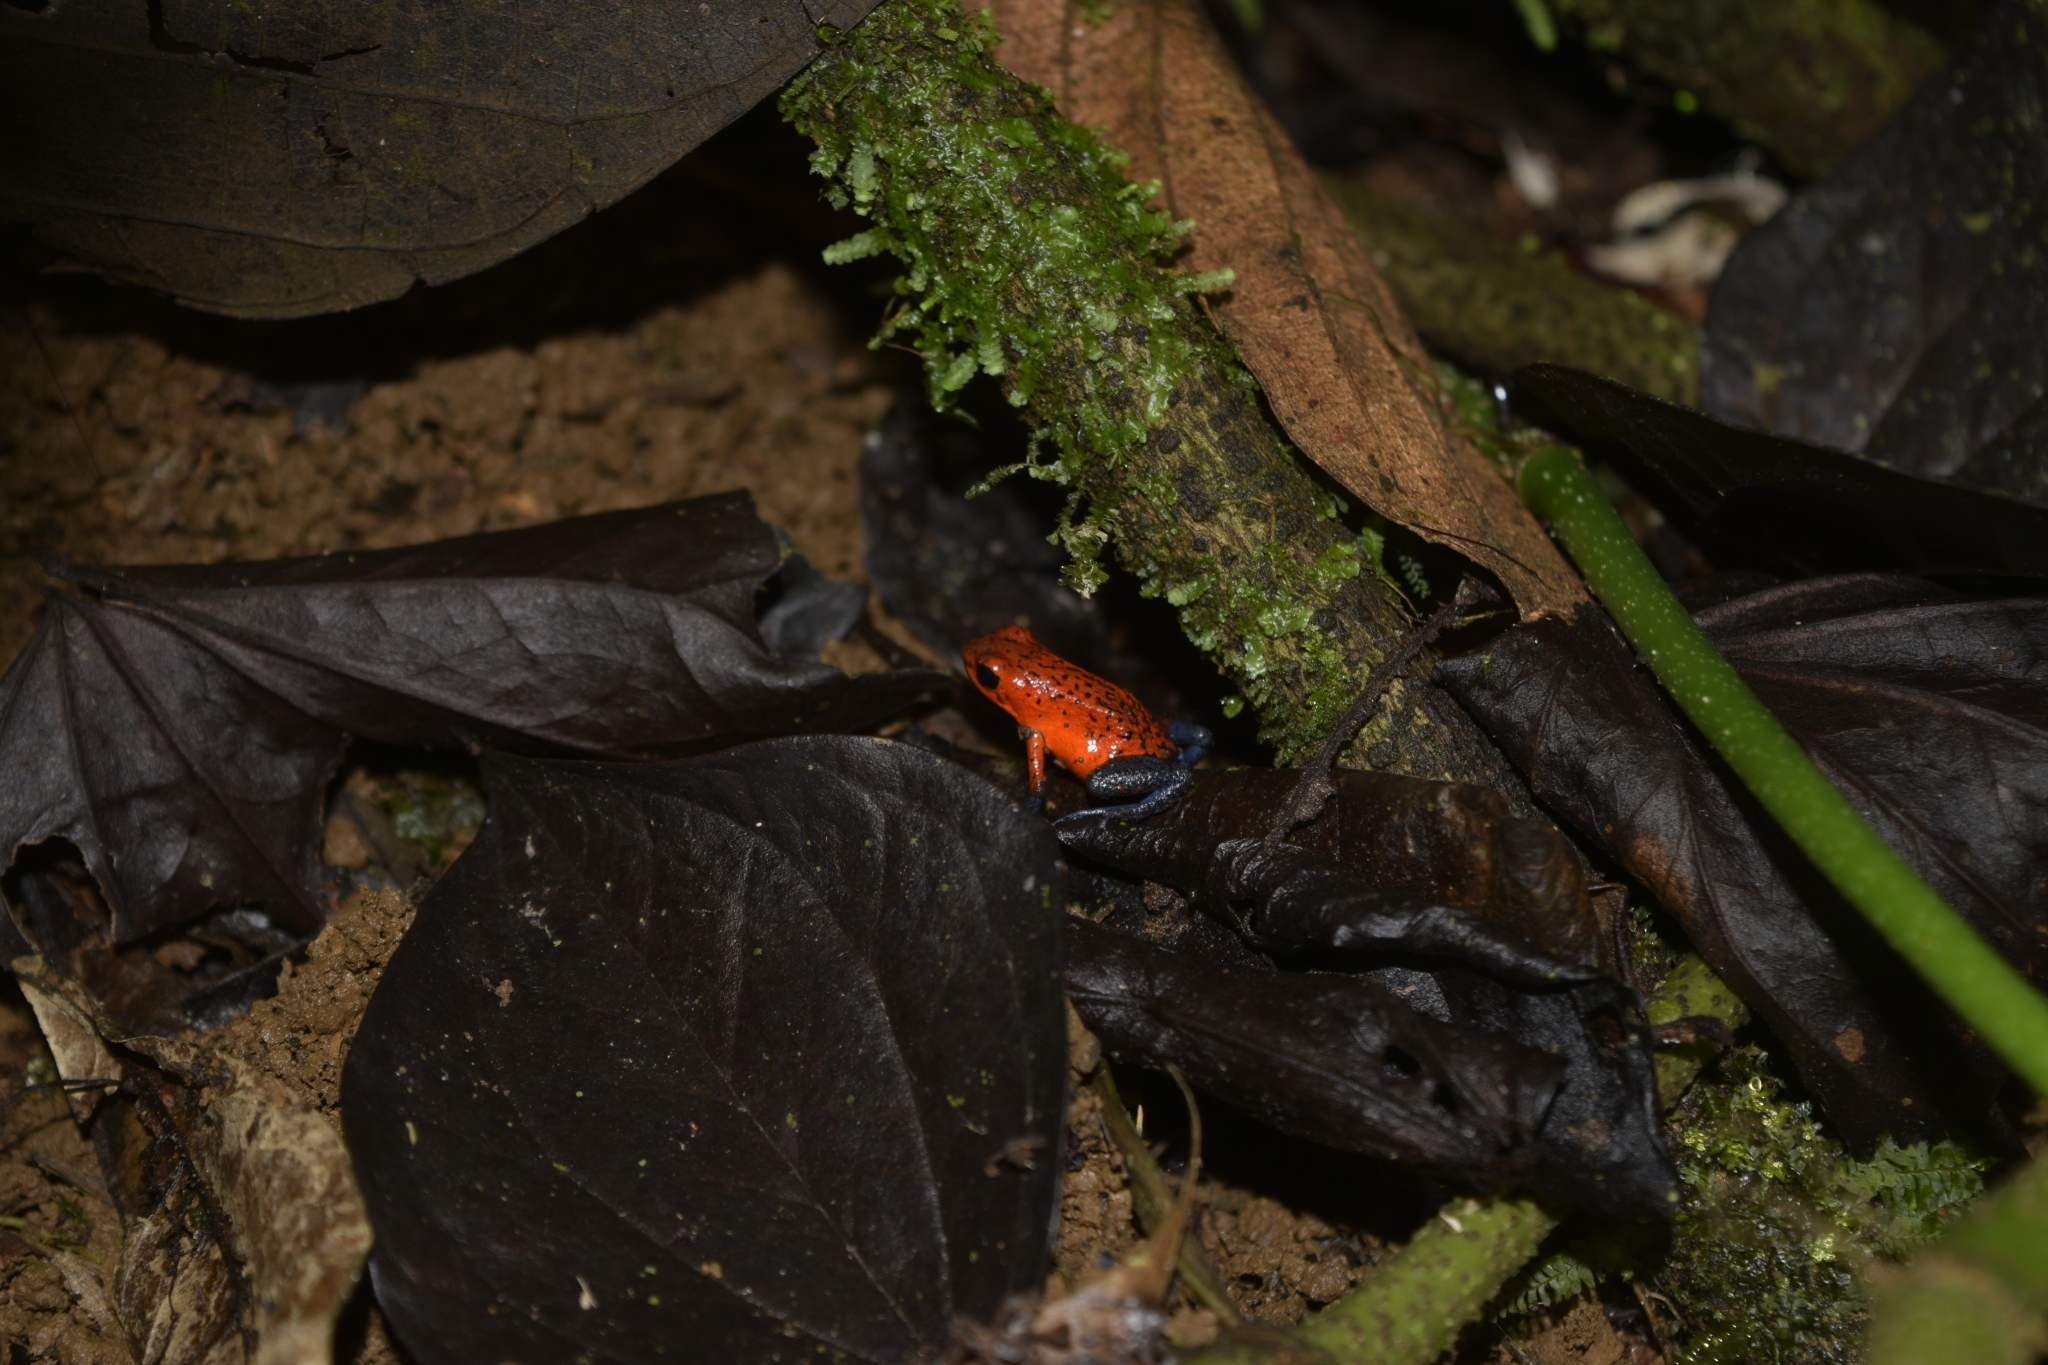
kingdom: Animalia
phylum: Chordata
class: Amphibia
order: Anura
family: Dendrobatidae
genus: Oophaga
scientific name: Oophaga pumilio
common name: Flaming poison frog
